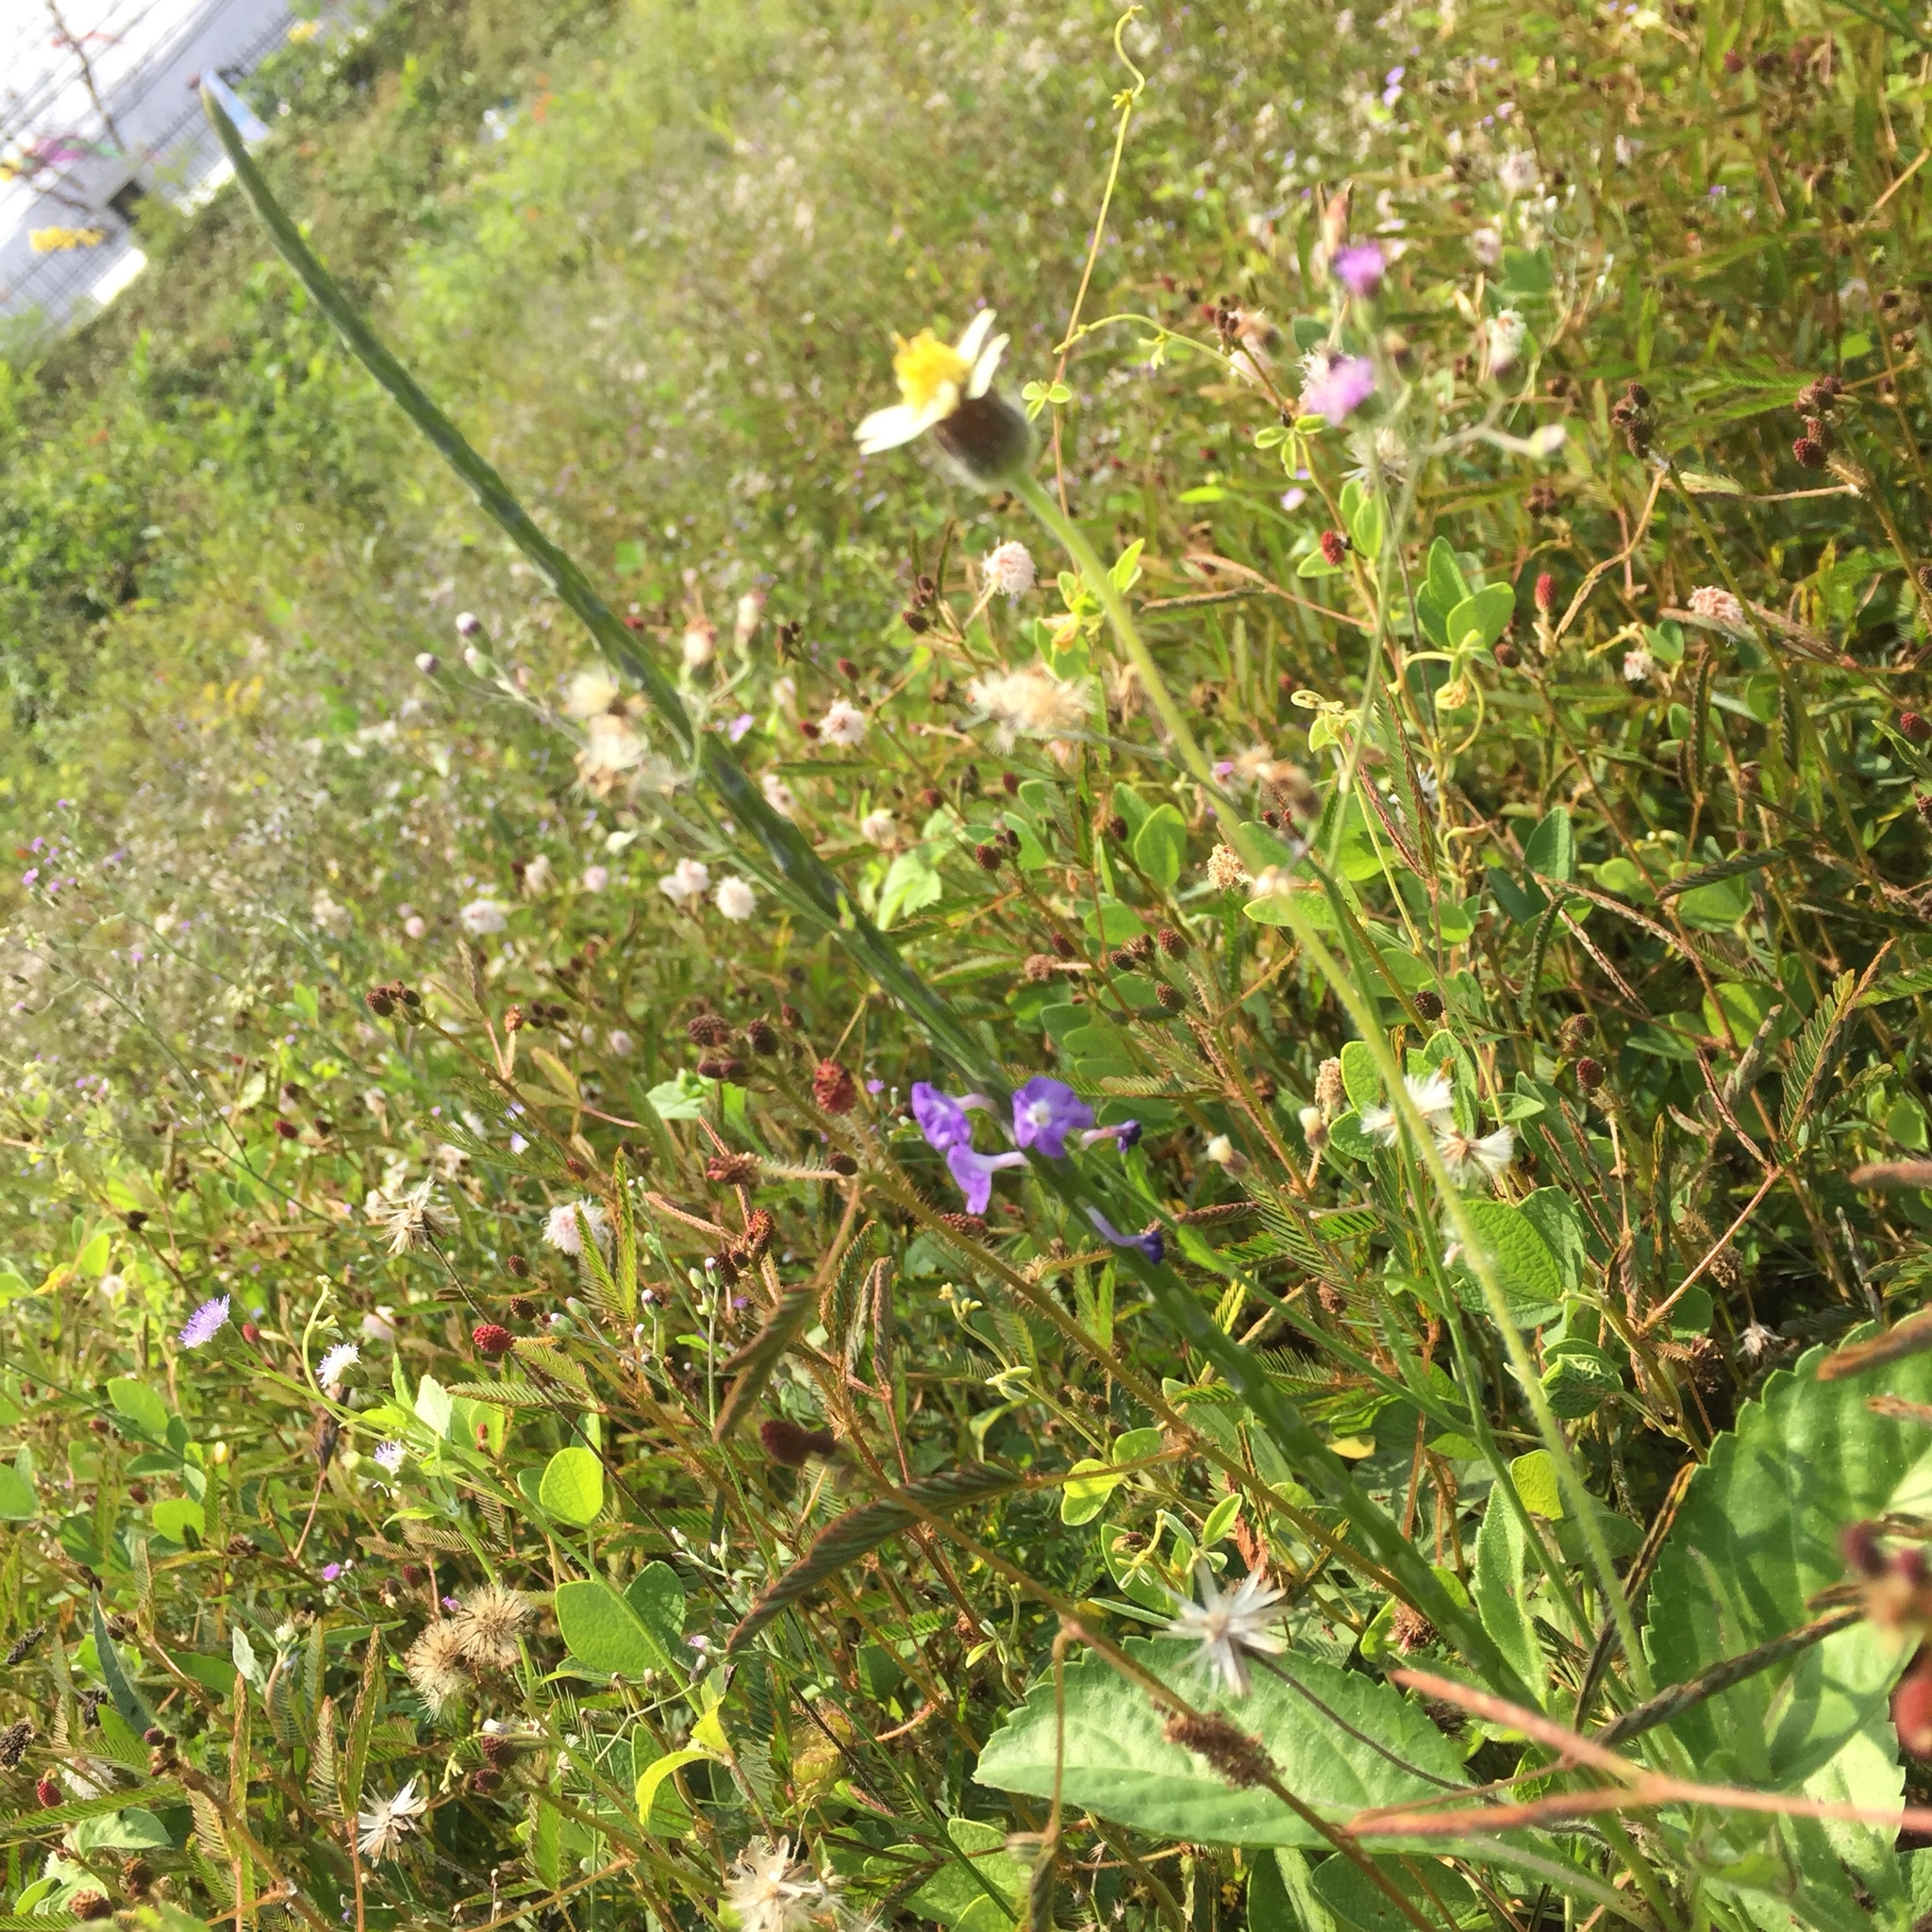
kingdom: Plantae
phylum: Tracheophyta
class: Magnoliopsida
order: Asterales
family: Asteraceae
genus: Tridax
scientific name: Tridax procumbens
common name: Coatbuttons
